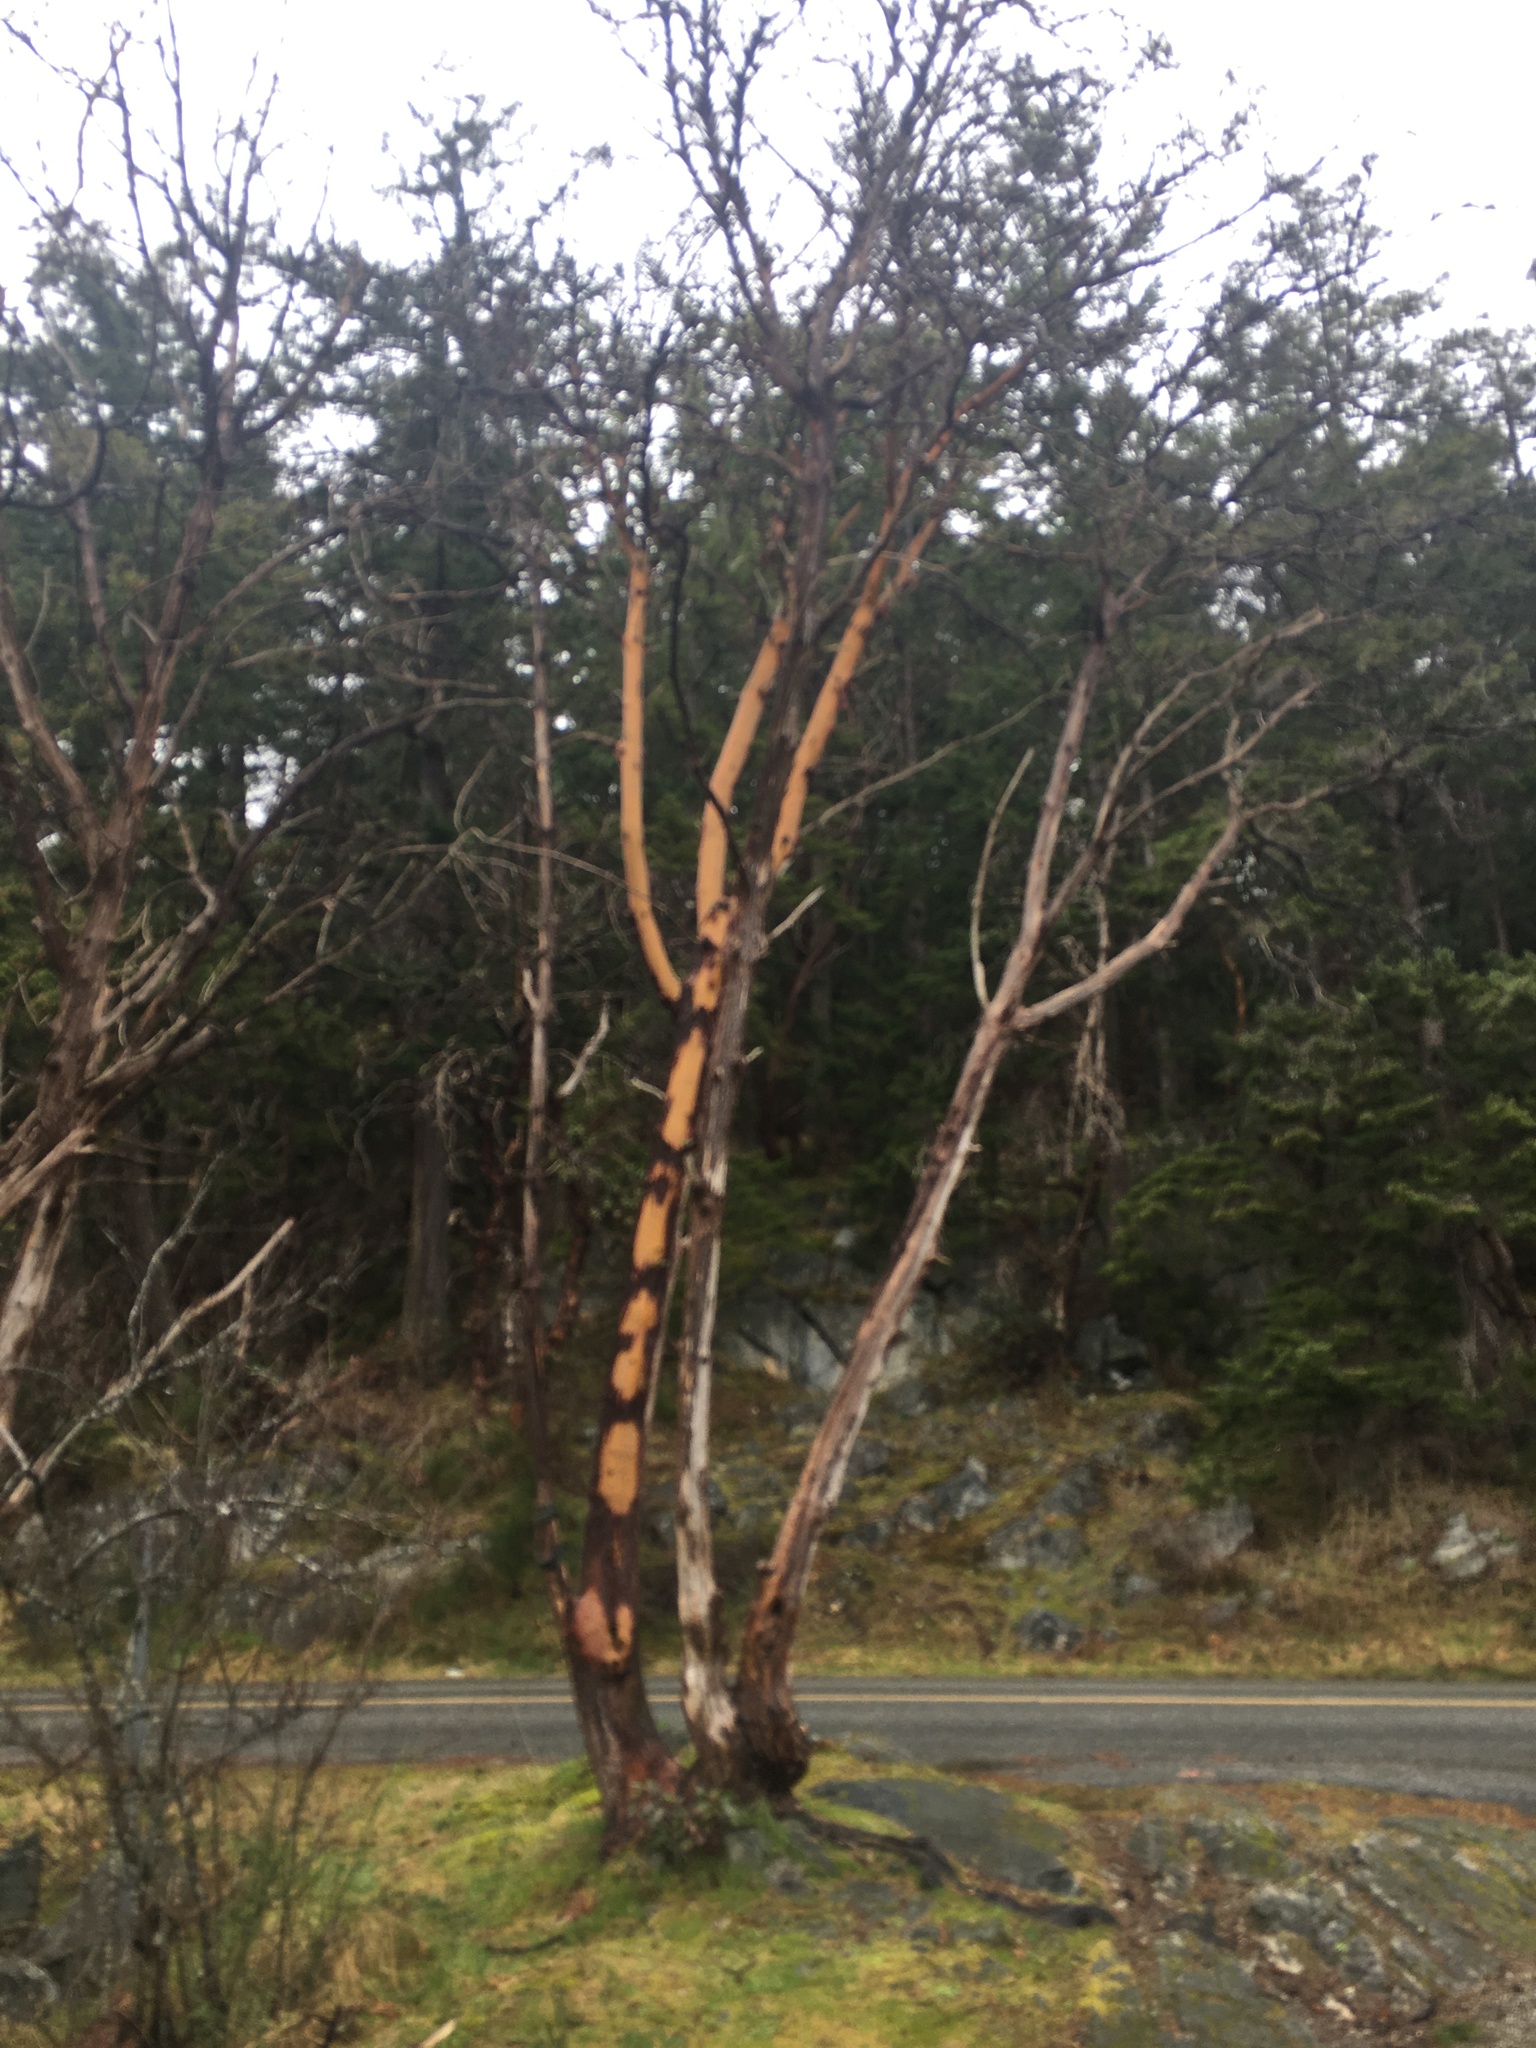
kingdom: Plantae
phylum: Tracheophyta
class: Magnoliopsida
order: Ericales
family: Ericaceae
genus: Arbutus
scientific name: Arbutus menziesii
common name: Pacific madrone
